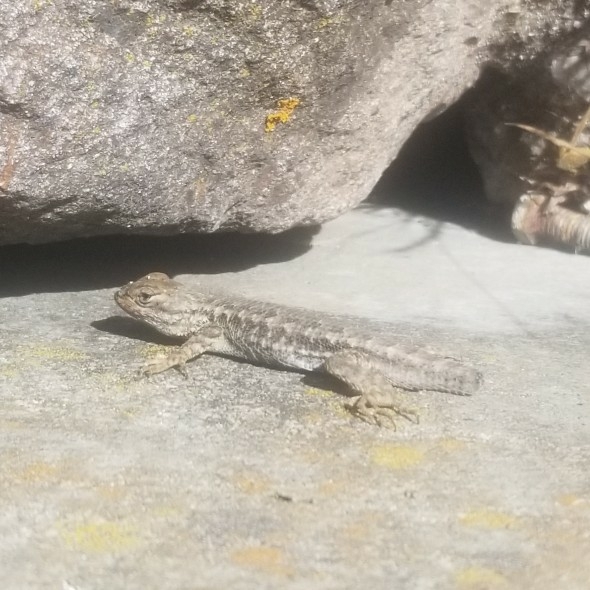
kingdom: Animalia
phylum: Chordata
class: Squamata
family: Phrynosomatidae
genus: Sceloporus
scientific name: Sceloporus occidentalis
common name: Western fence lizard
